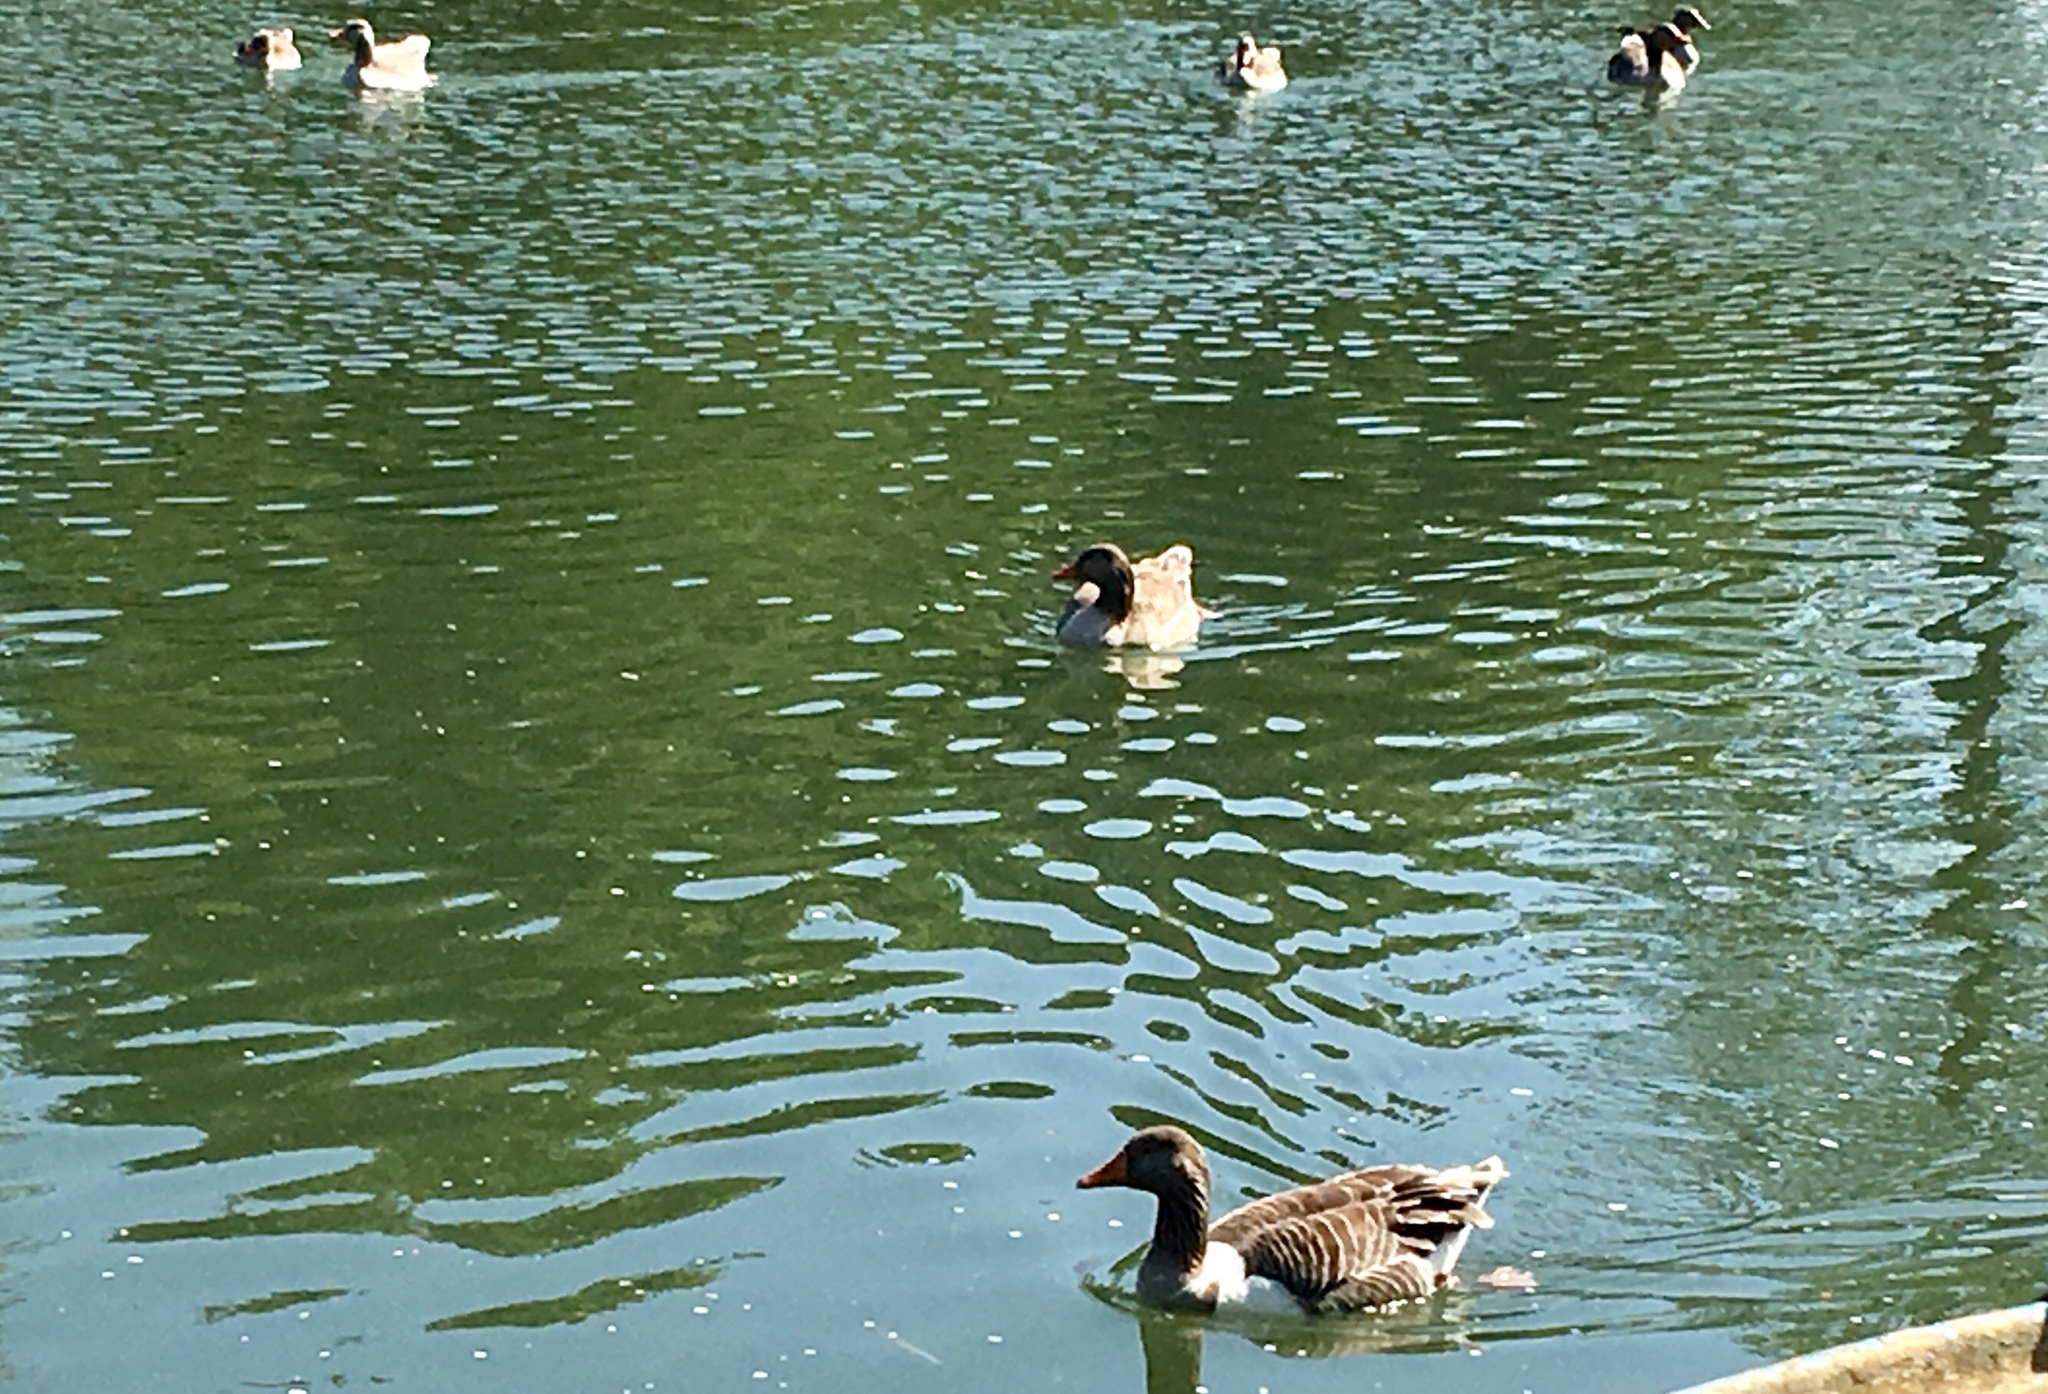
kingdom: Animalia
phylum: Chordata
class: Aves
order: Anseriformes
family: Anatidae
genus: Anser
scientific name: Anser anser
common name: Greylag goose
